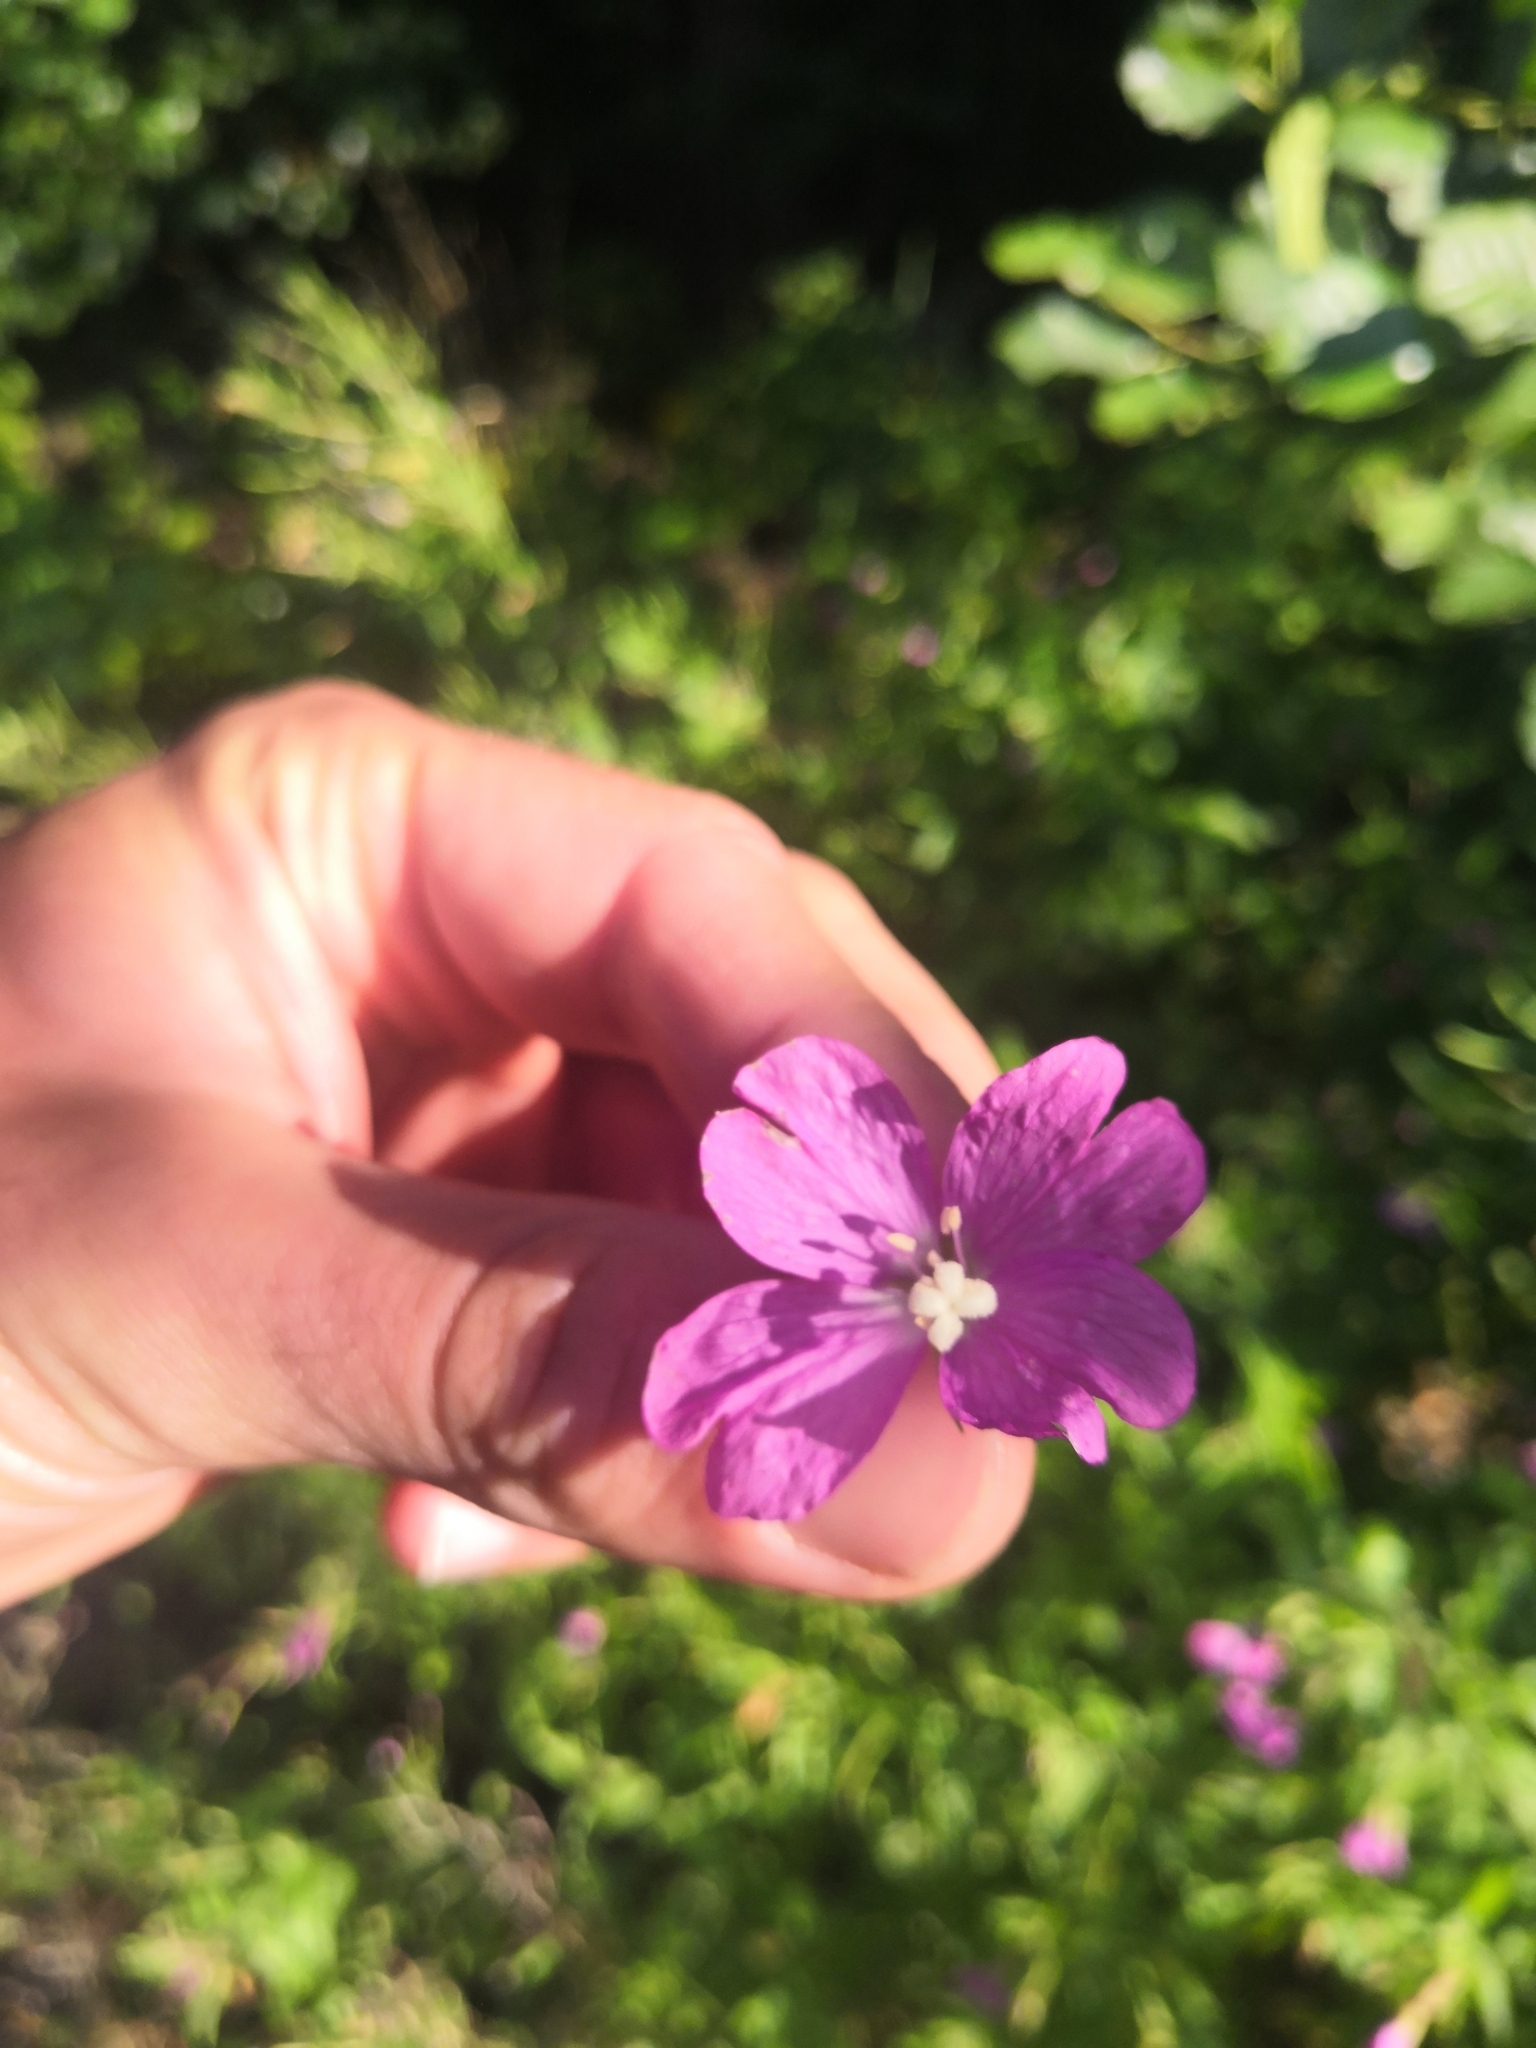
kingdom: Plantae
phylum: Tracheophyta
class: Magnoliopsida
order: Myrtales
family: Onagraceae
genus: Epilobium
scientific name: Epilobium hirsutum
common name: Great willowherb
